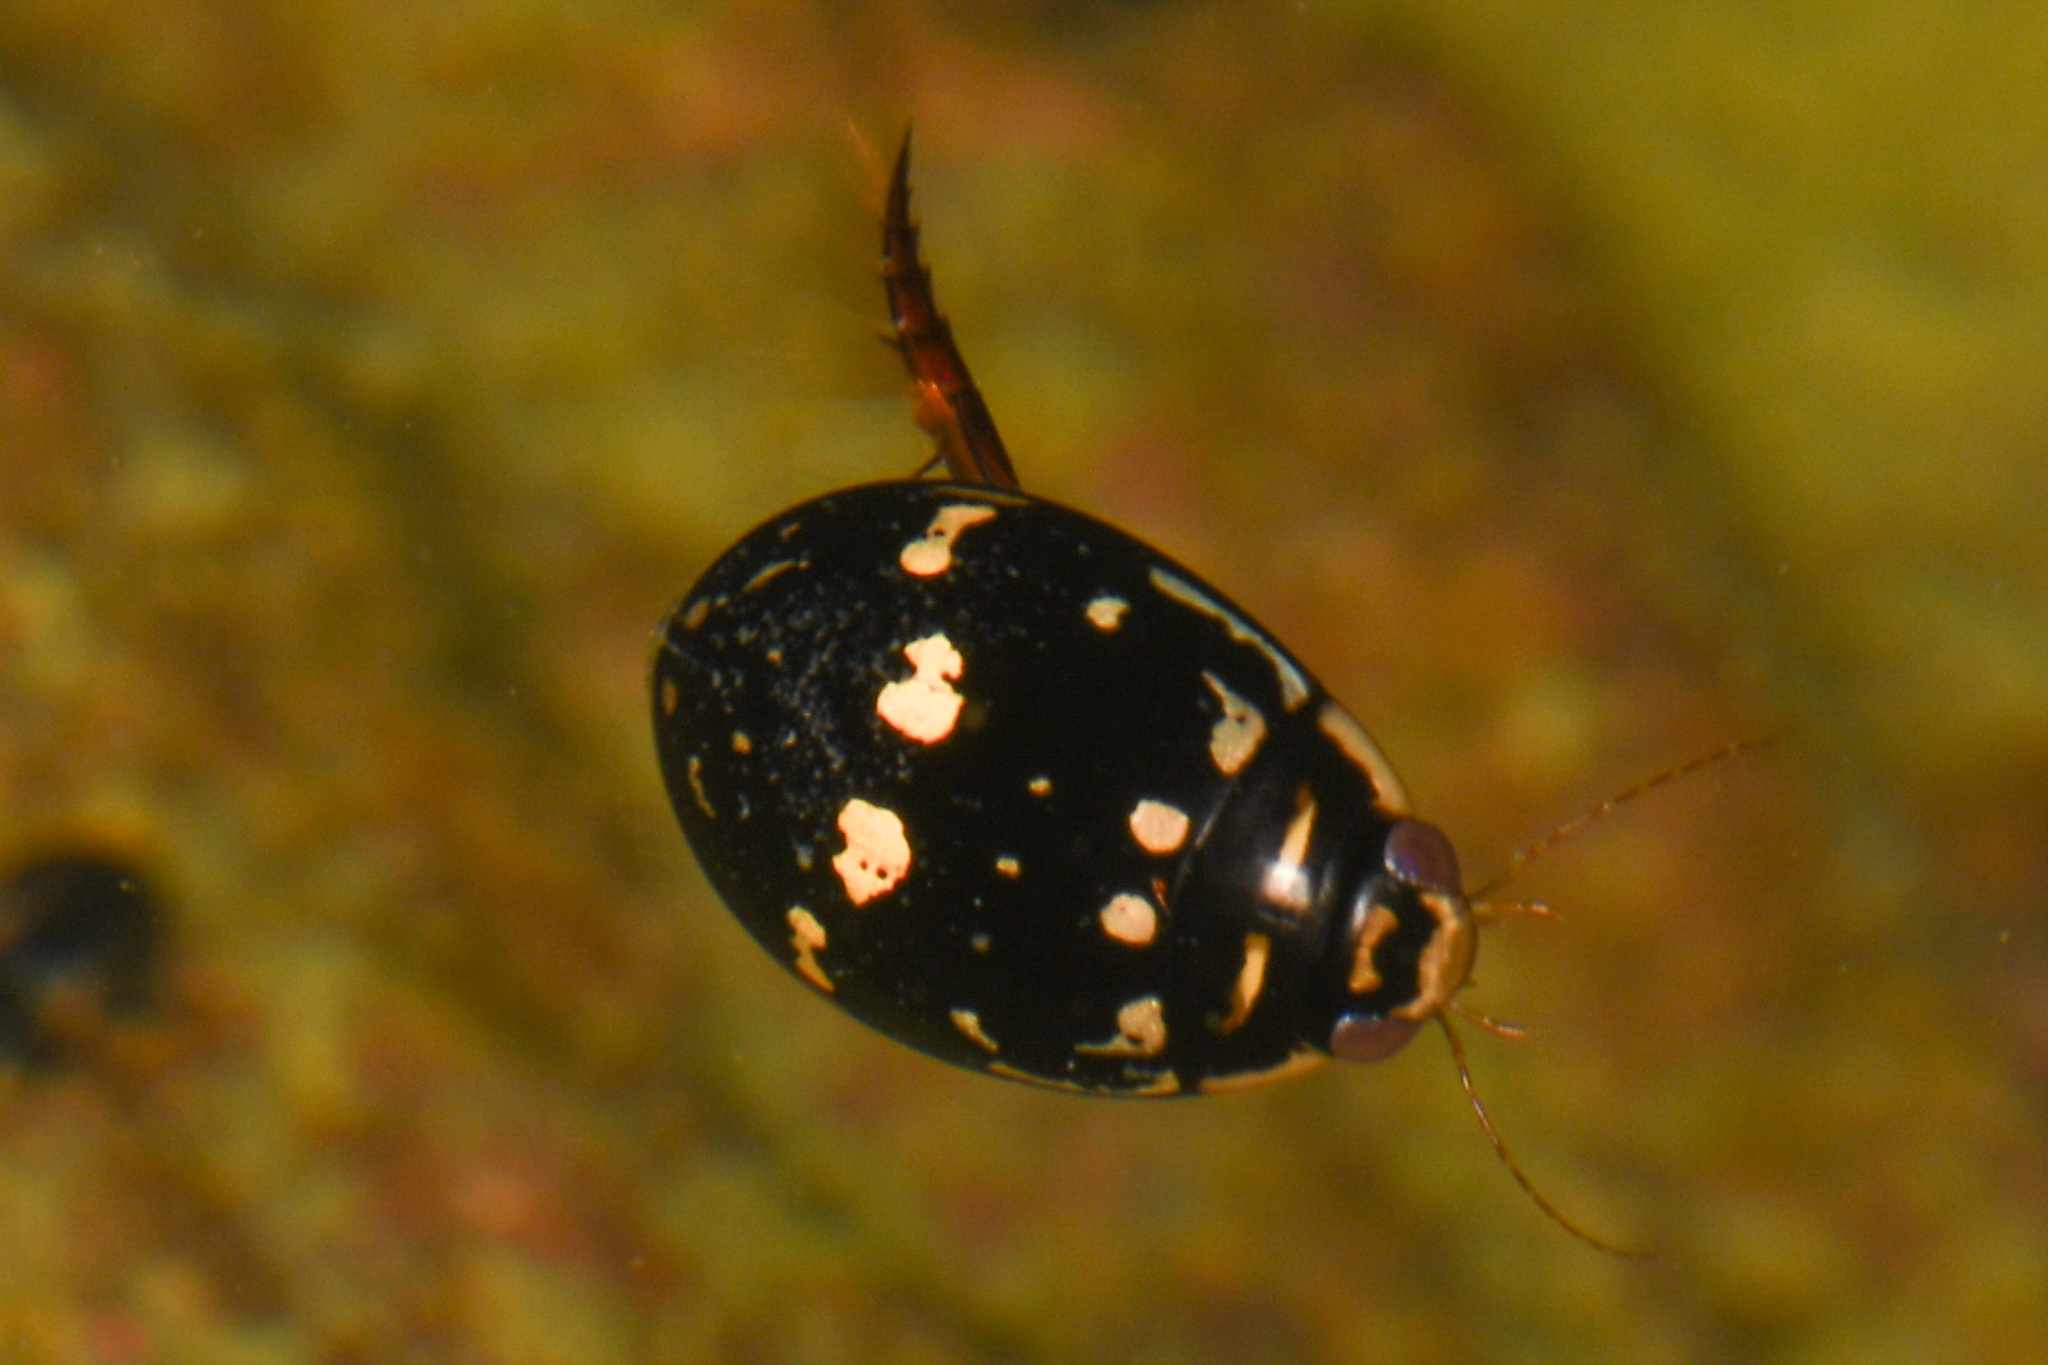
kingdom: Animalia
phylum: Arthropoda
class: Insecta
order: Coleoptera
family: Dytiscidae
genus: Thermonectus
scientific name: Thermonectus marmoratus
